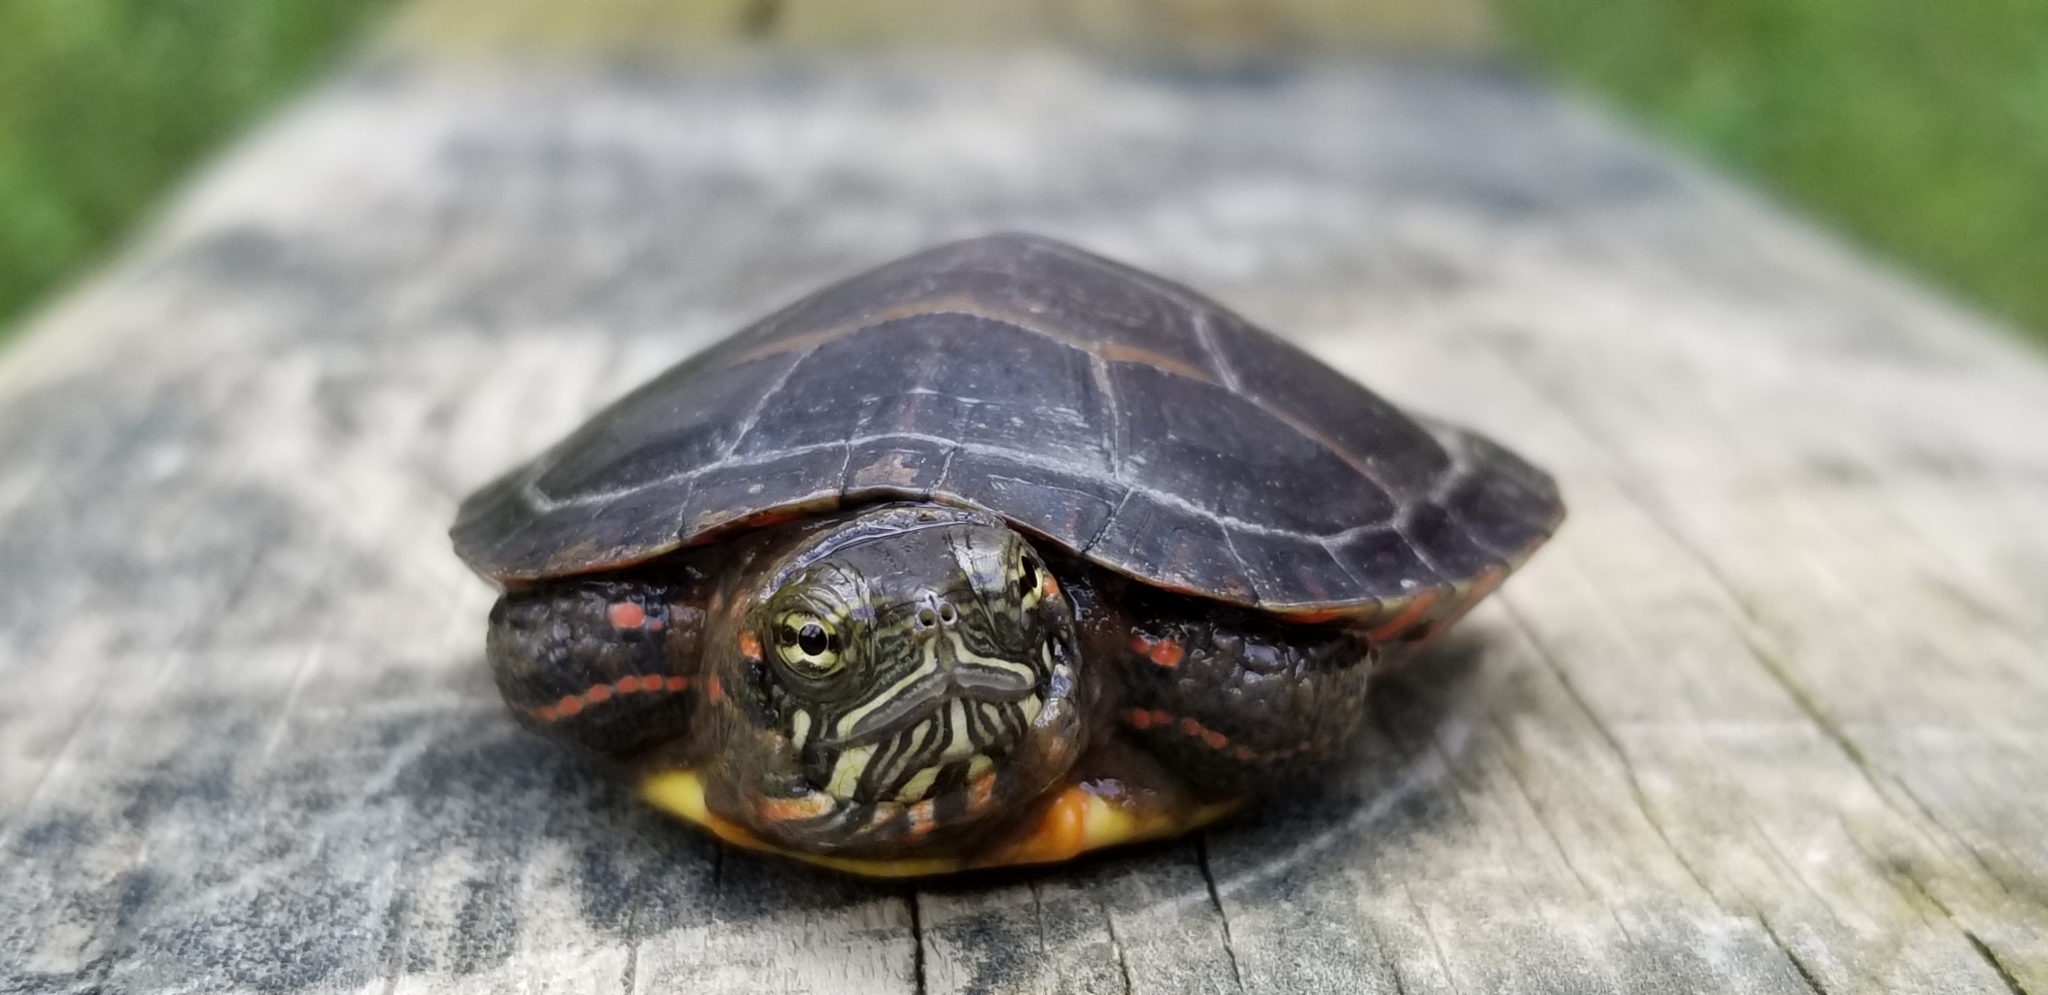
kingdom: Animalia
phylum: Chordata
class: Testudines
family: Emydidae
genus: Chrysemys
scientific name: Chrysemys picta
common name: Painted turtle
